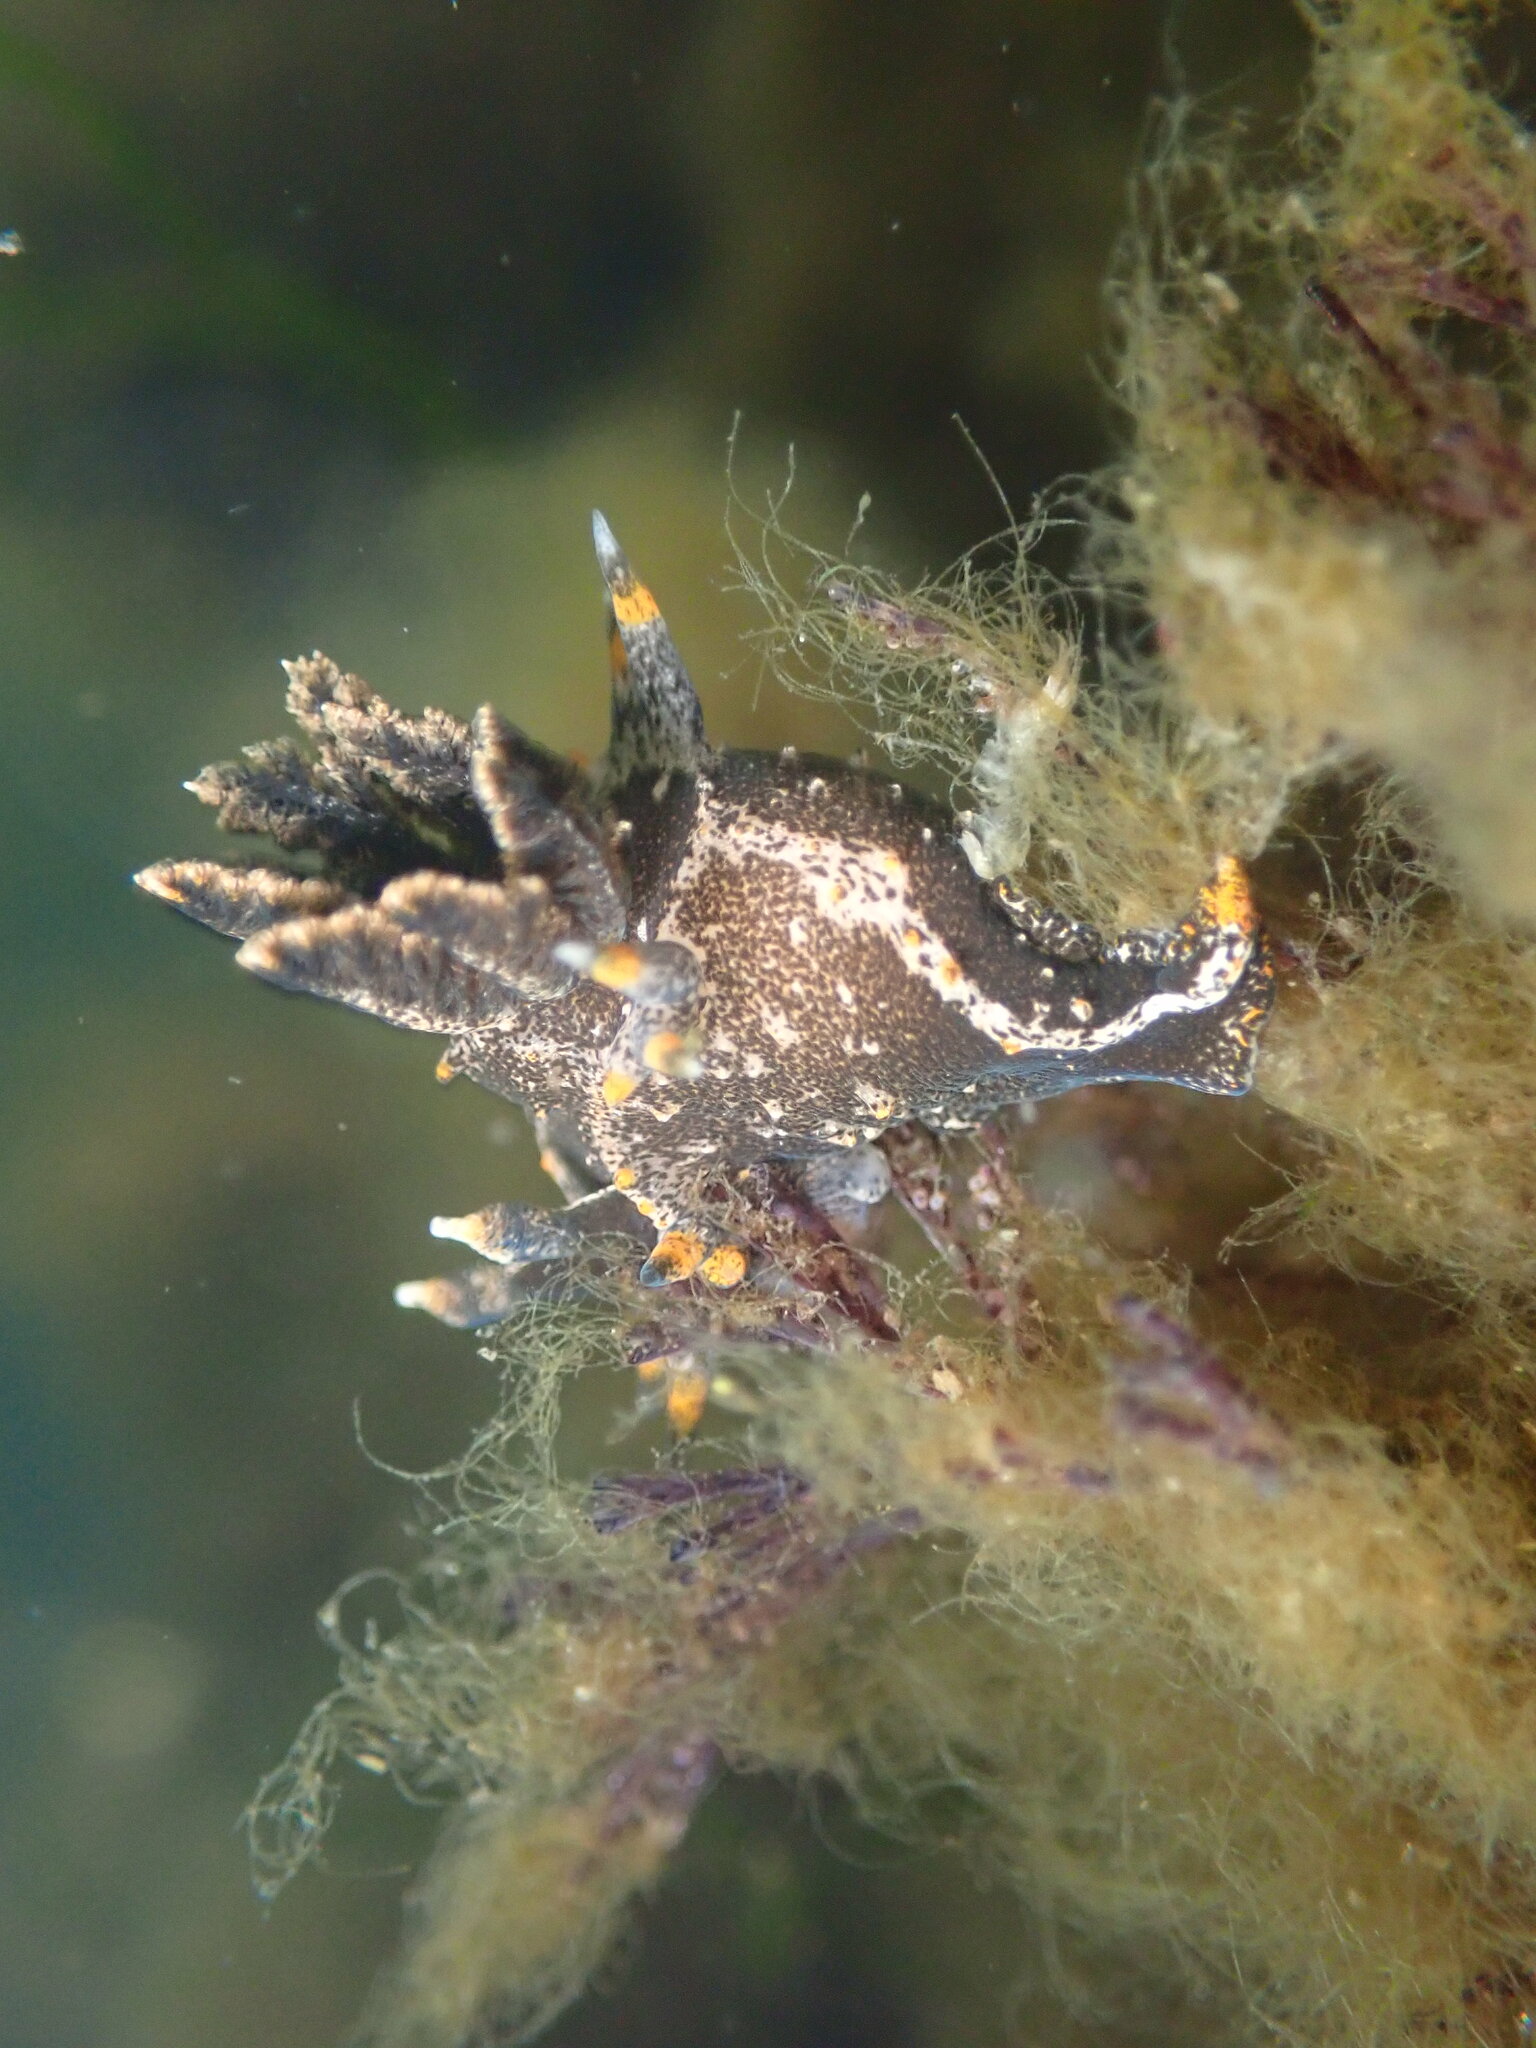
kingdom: Animalia
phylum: Mollusca
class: Gastropoda
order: Nudibranchia
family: Polyceridae
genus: Polycera
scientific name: Polycera hedgpethi
